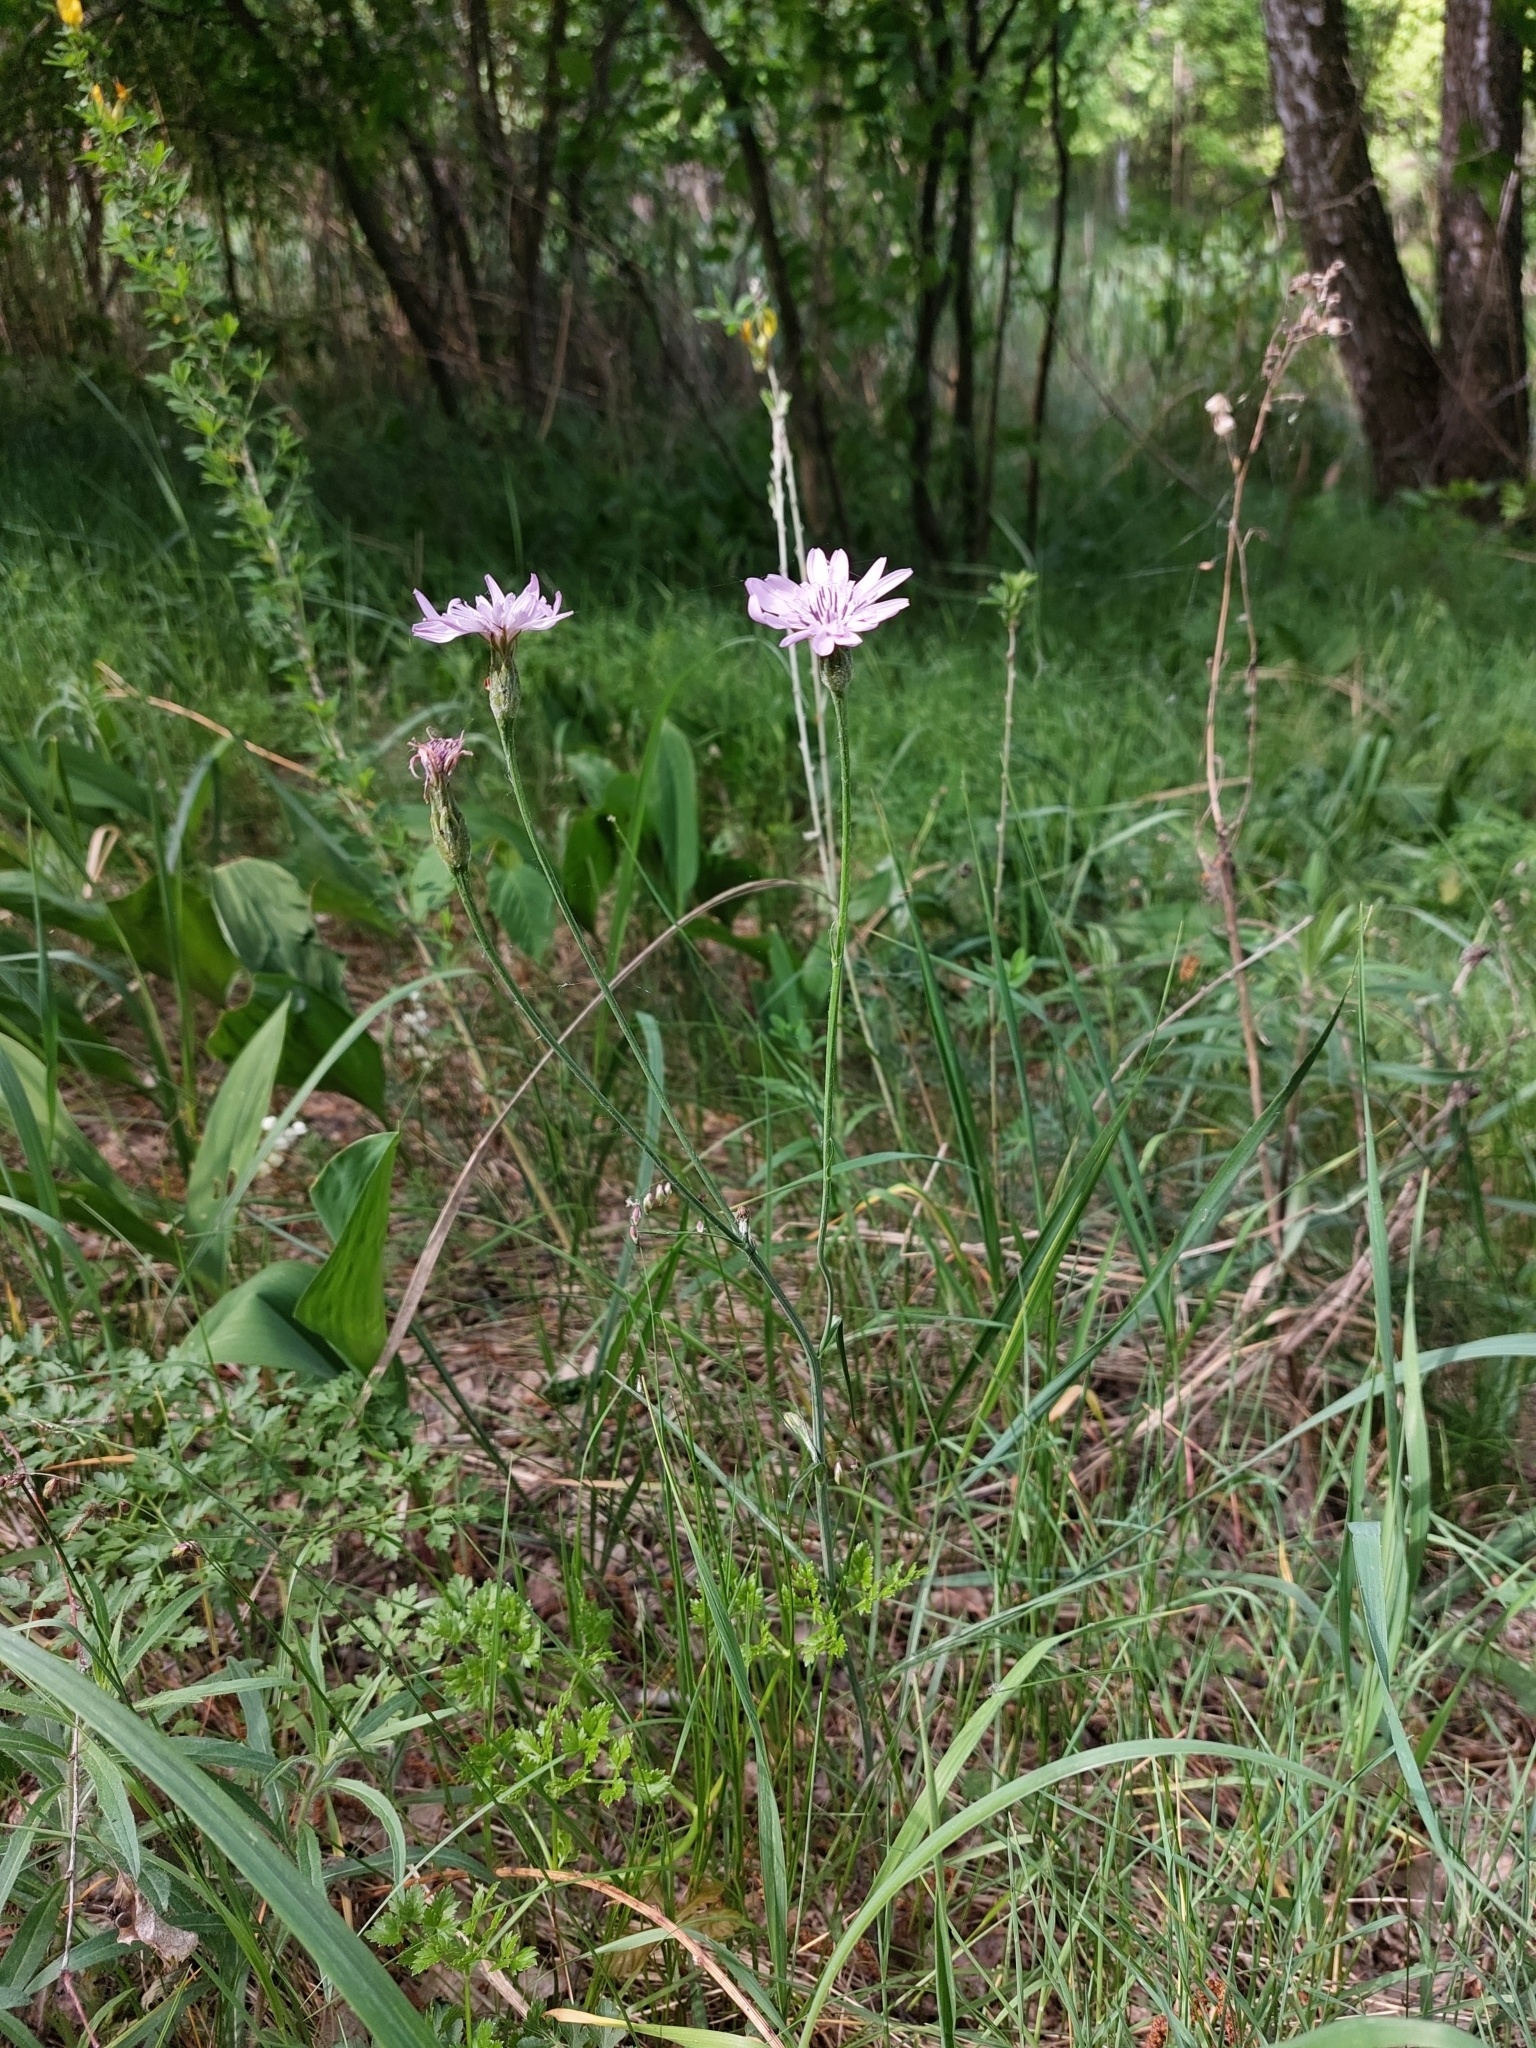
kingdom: Plantae
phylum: Tracheophyta
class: Magnoliopsida
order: Asterales
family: Asteraceae
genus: Scorzonera
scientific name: Scorzonera purpurea
